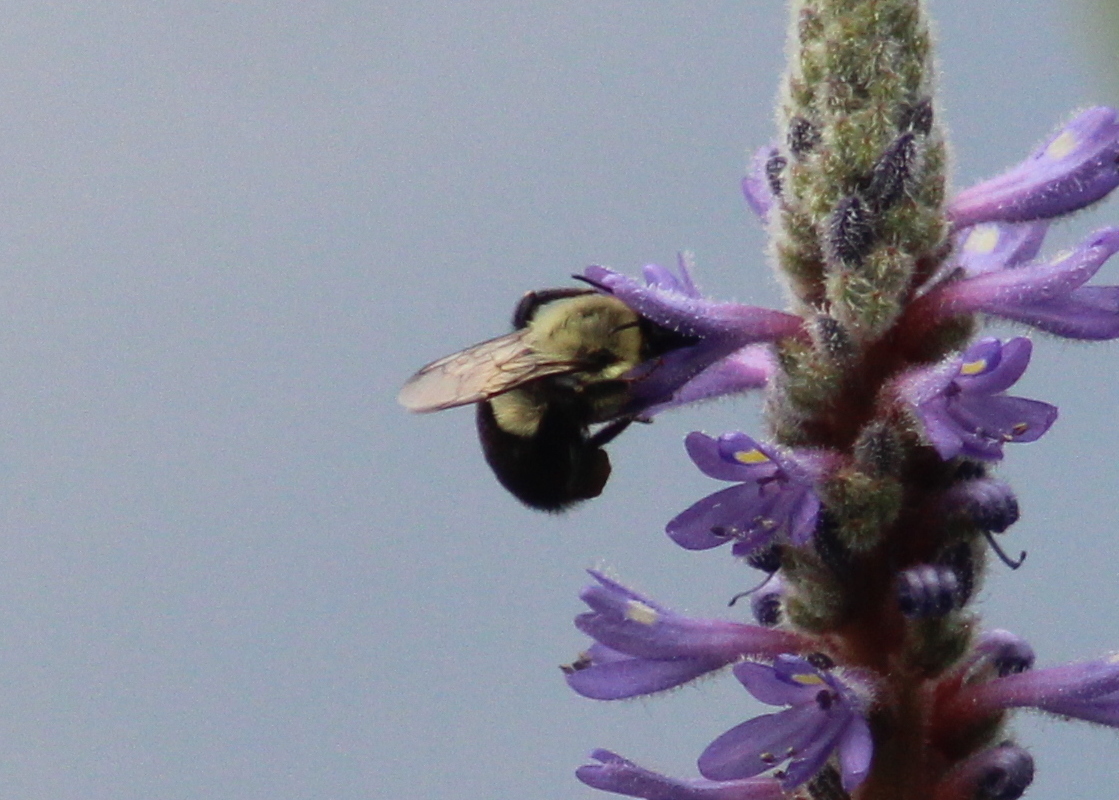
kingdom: Animalia
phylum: Arthropoda
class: Insecta
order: Hymenoptera
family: Apidae
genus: Bombus
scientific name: Bombus impatiens
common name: Common eastern bumble bee
